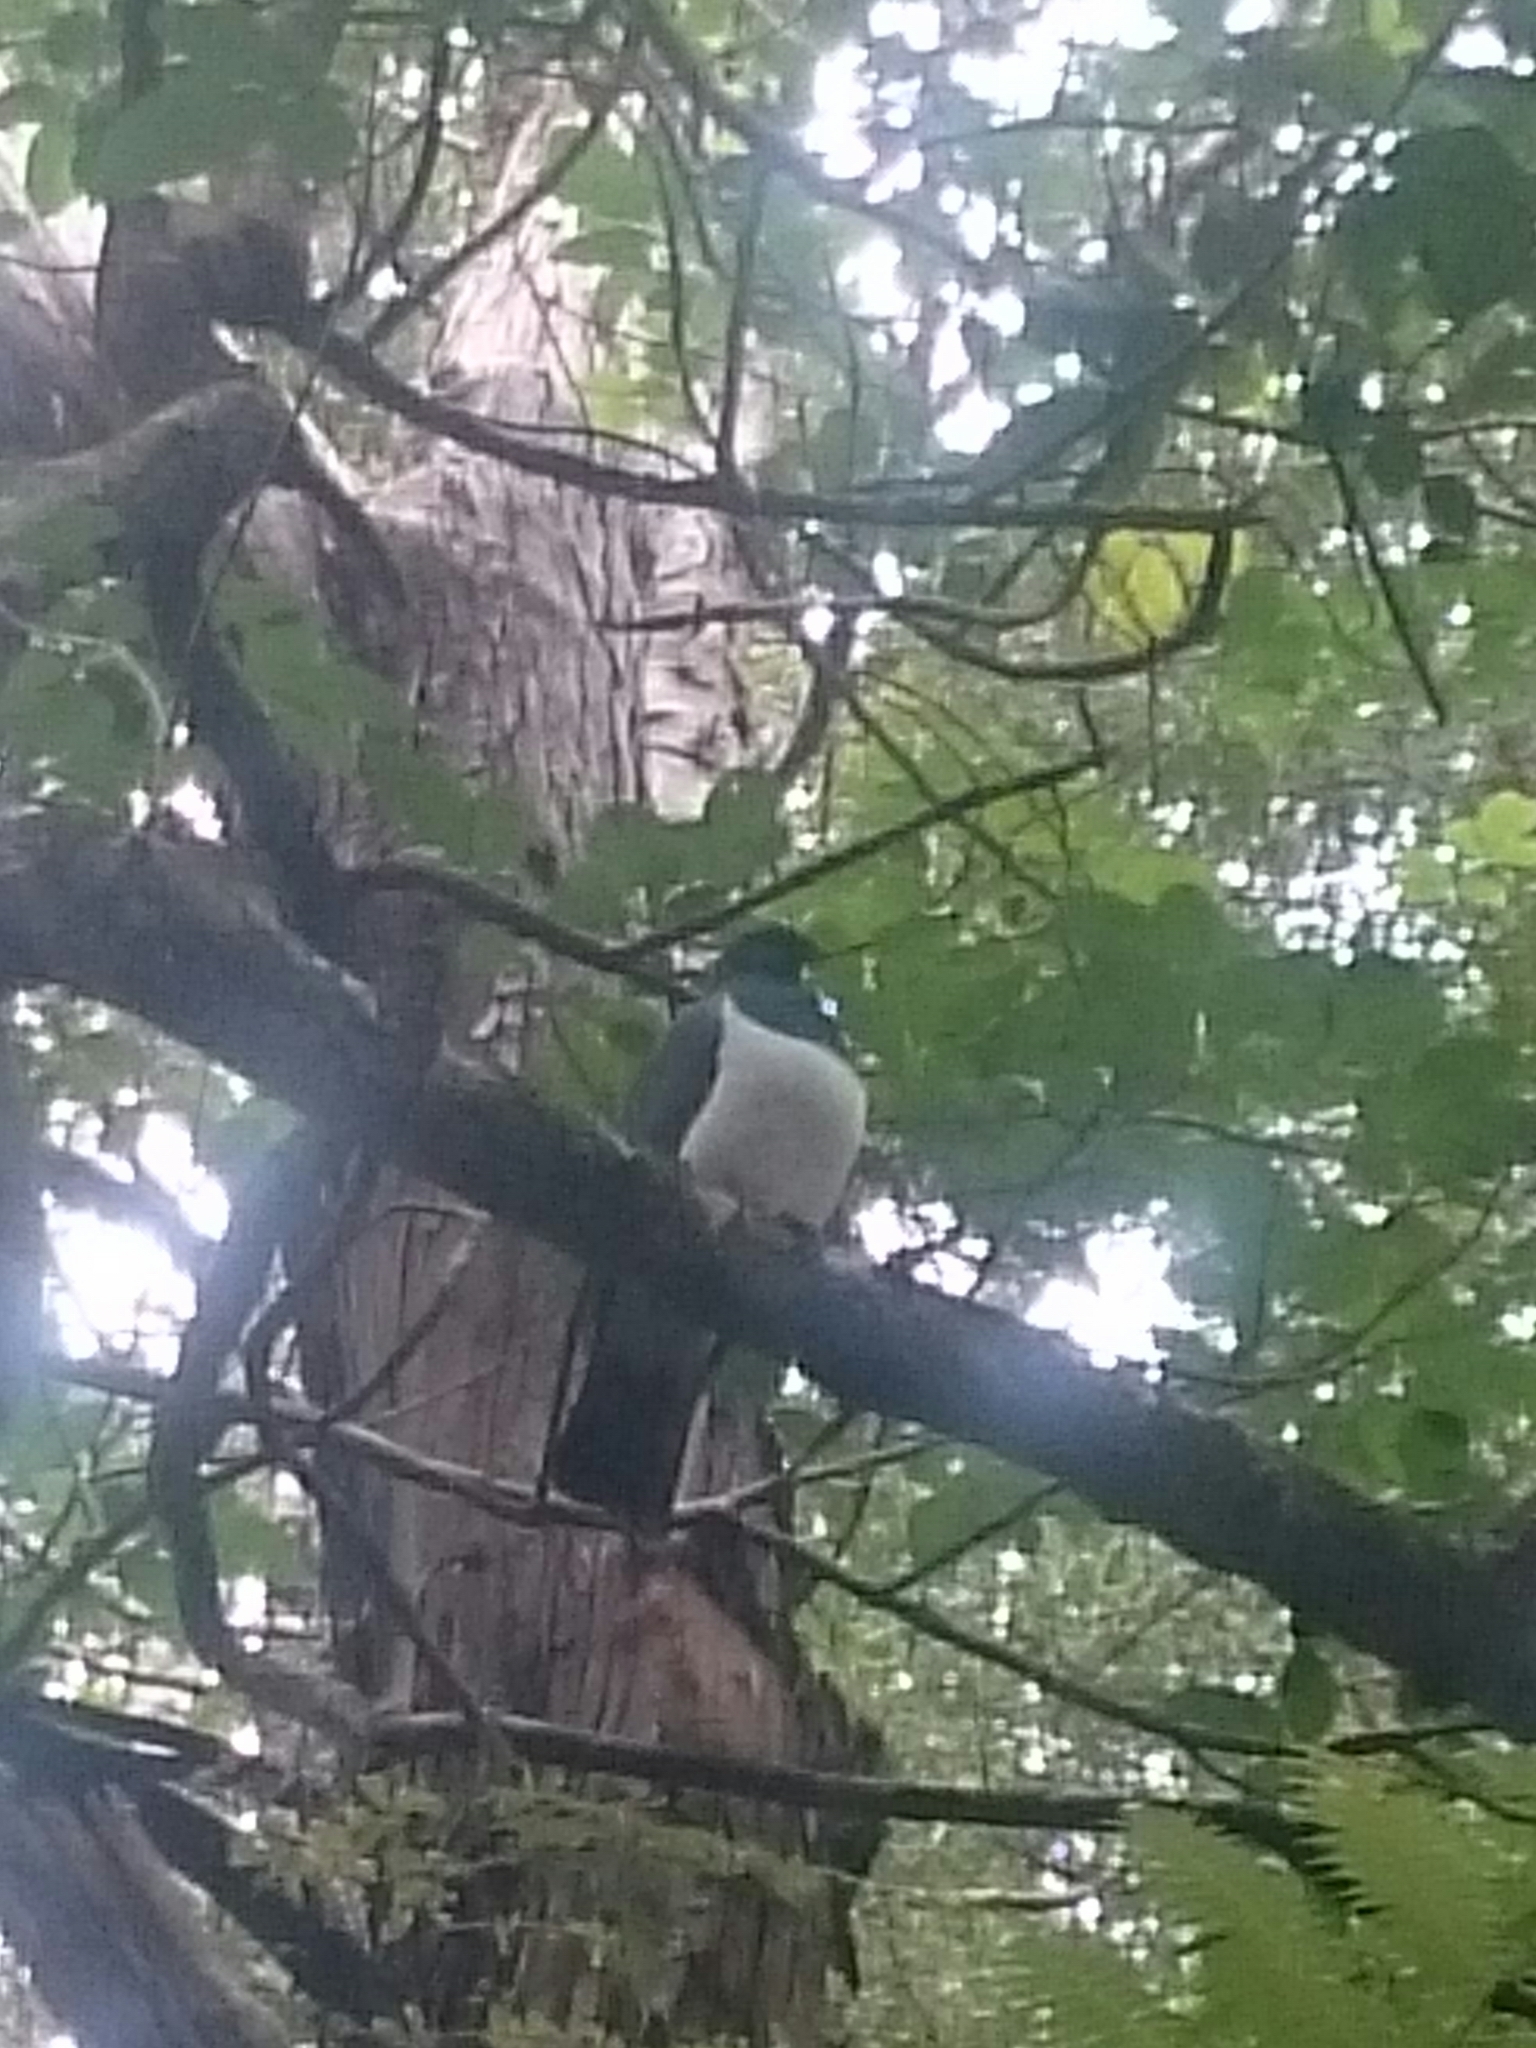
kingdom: Animalia
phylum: Chordata
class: Aves
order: Columbiformes
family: Columbidae
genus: Hemiphaga
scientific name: Hemiphaga novaeseelandiae
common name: New zealand pigeon
